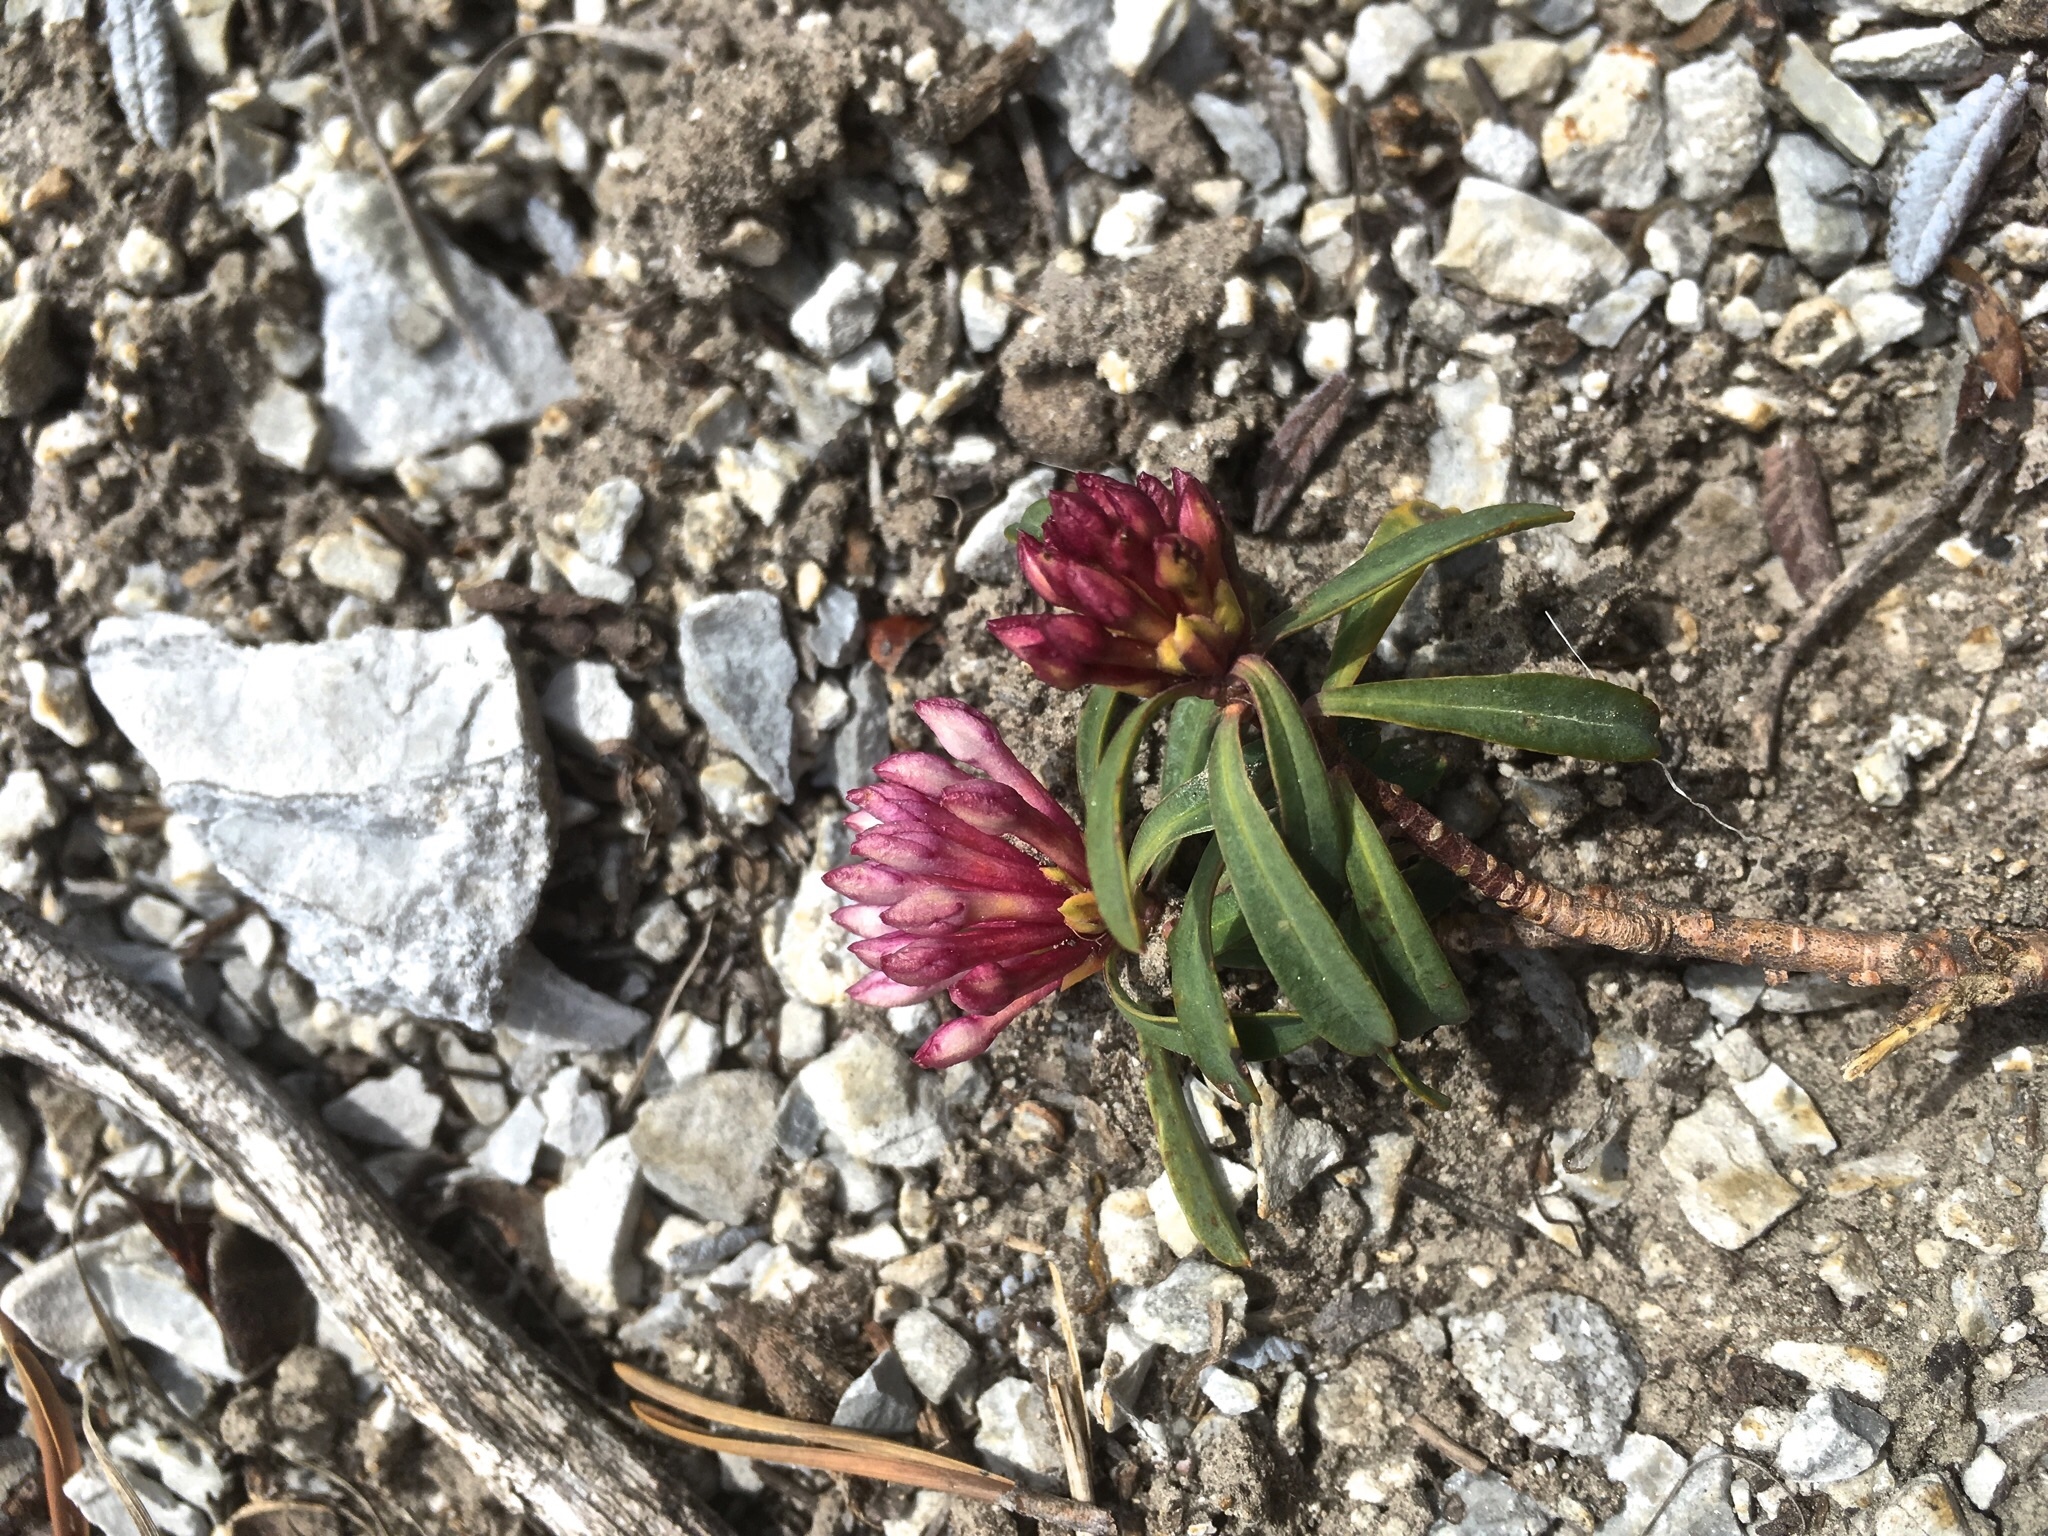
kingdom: Plantae
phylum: Tracheophyta
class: Magnoliopsida
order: Malvales
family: Thymelaeaceae
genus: Daphne
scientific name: Daphne striata
